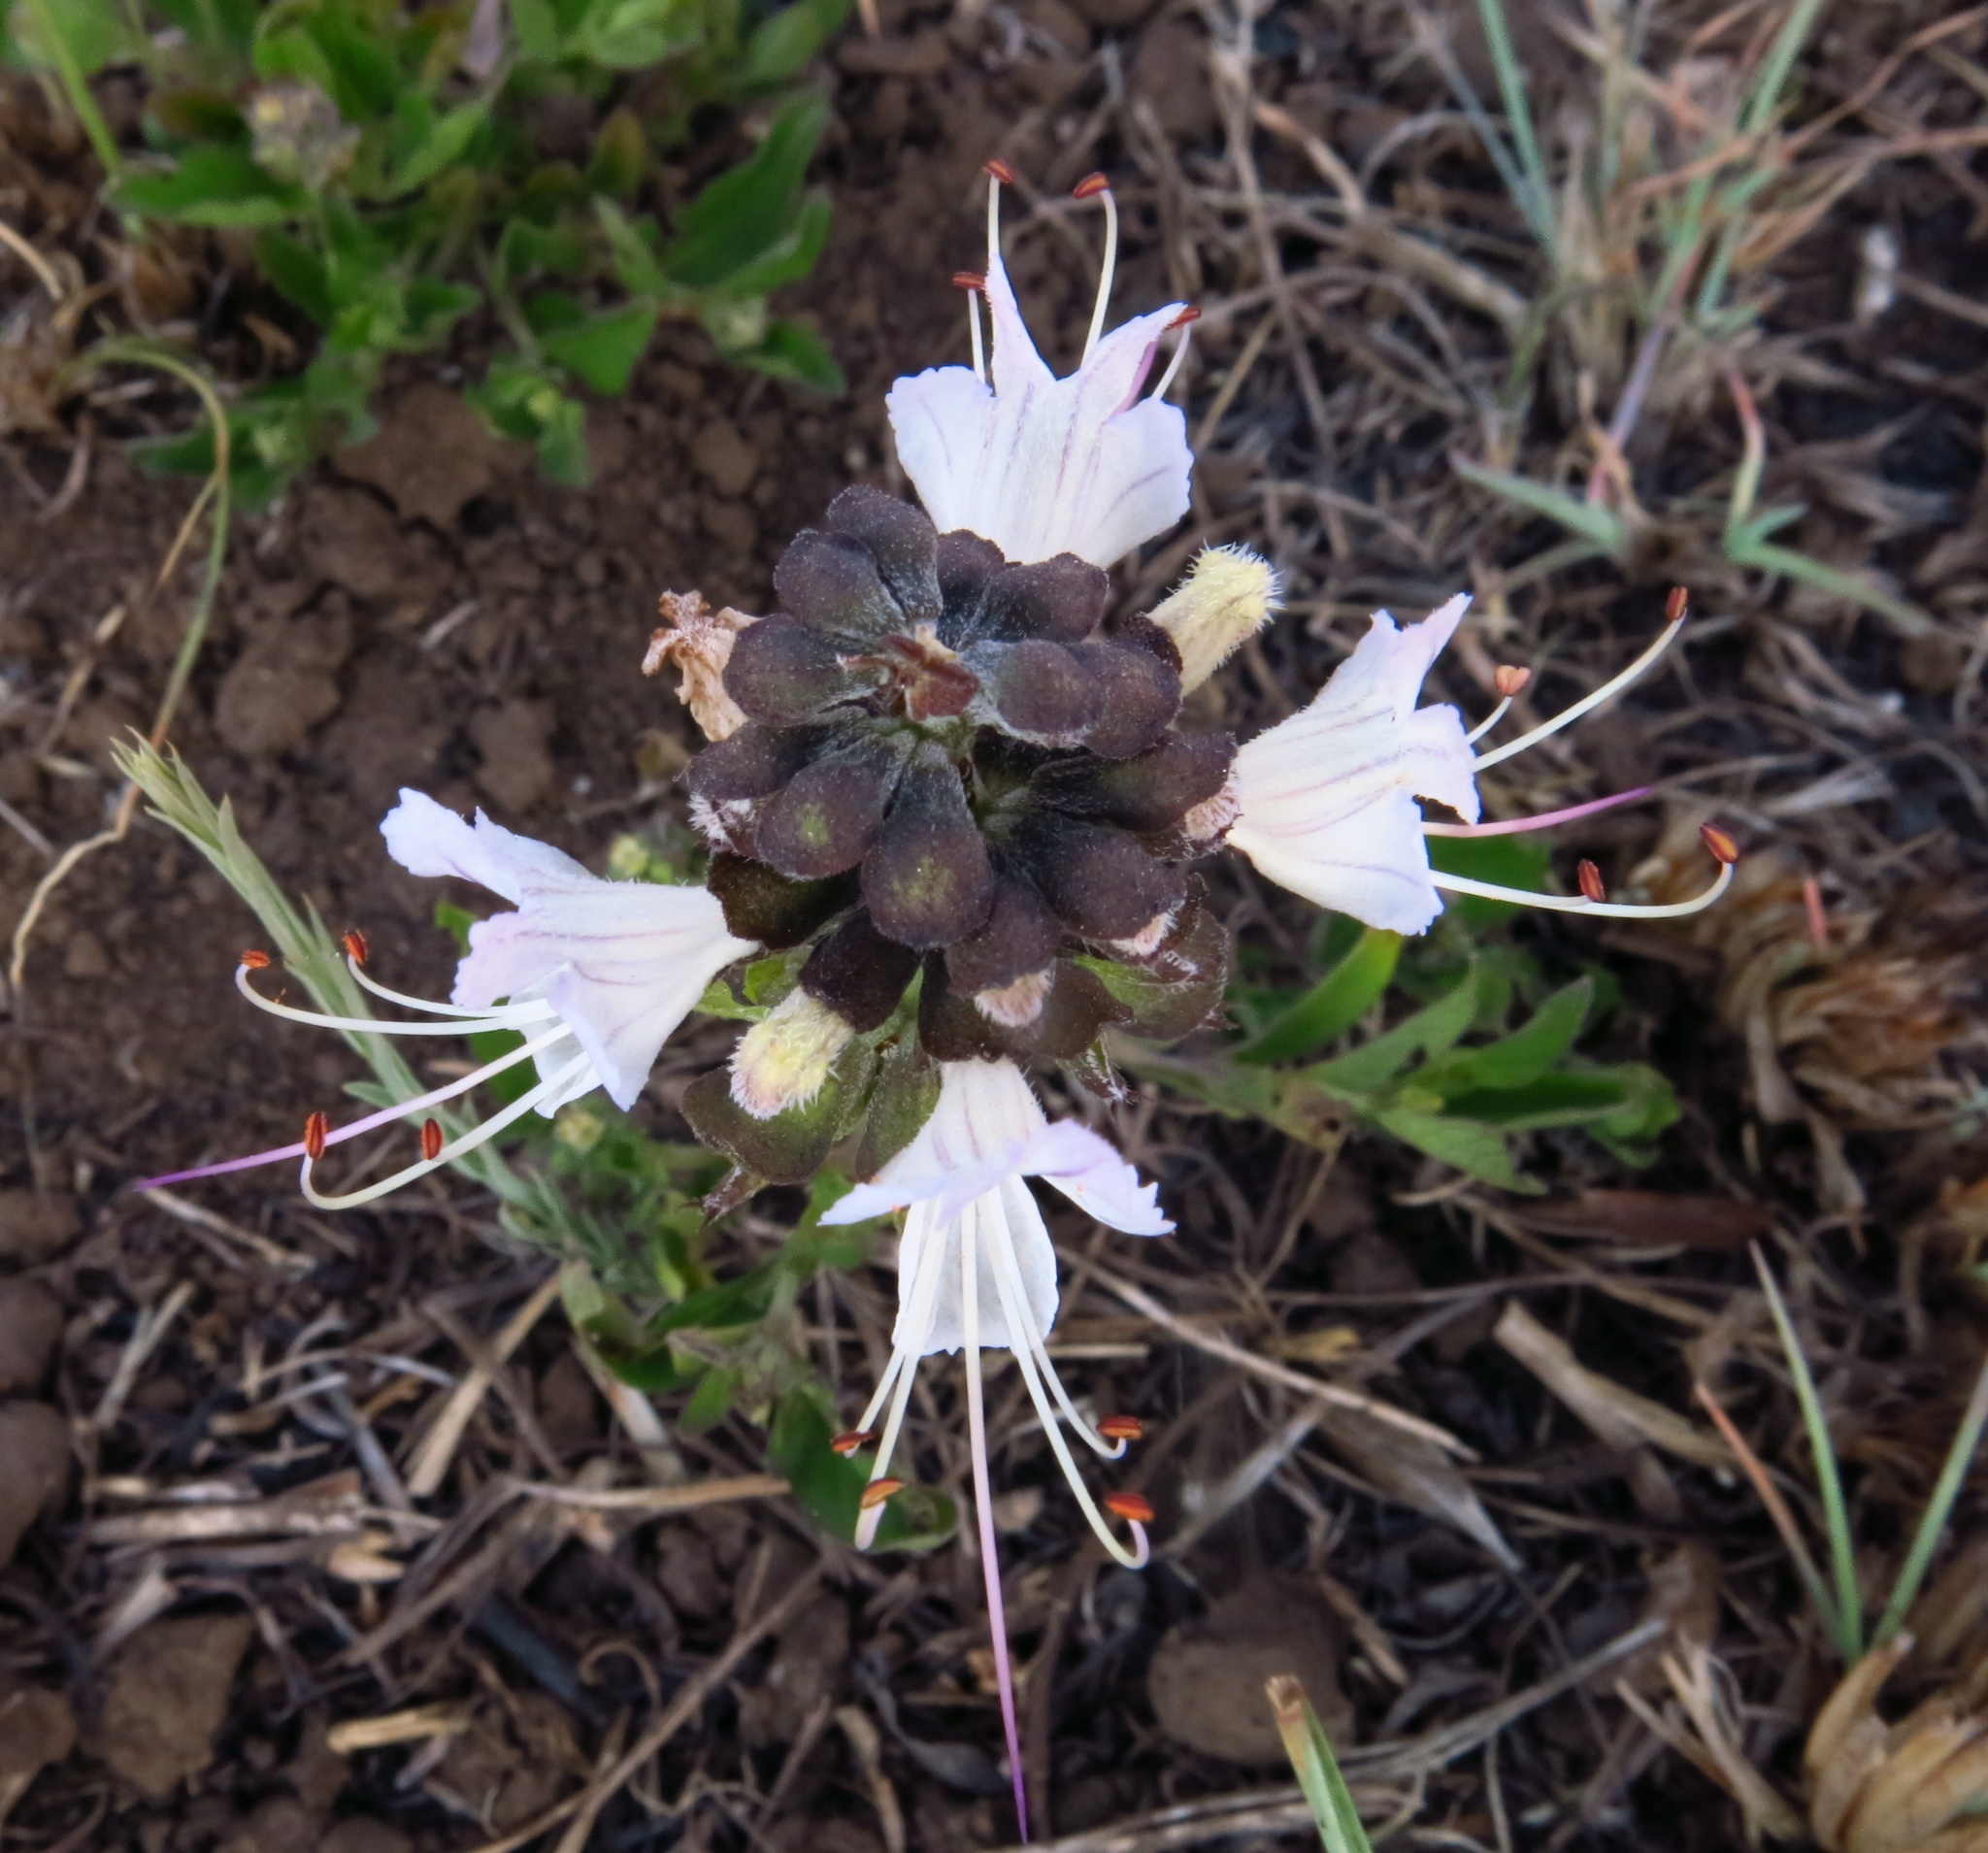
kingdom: Plantae
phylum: Tracheophyta
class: Magnoliopsida
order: Lamiales
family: Lamiaceae
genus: Ocimum
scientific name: Ocimum obovatum
